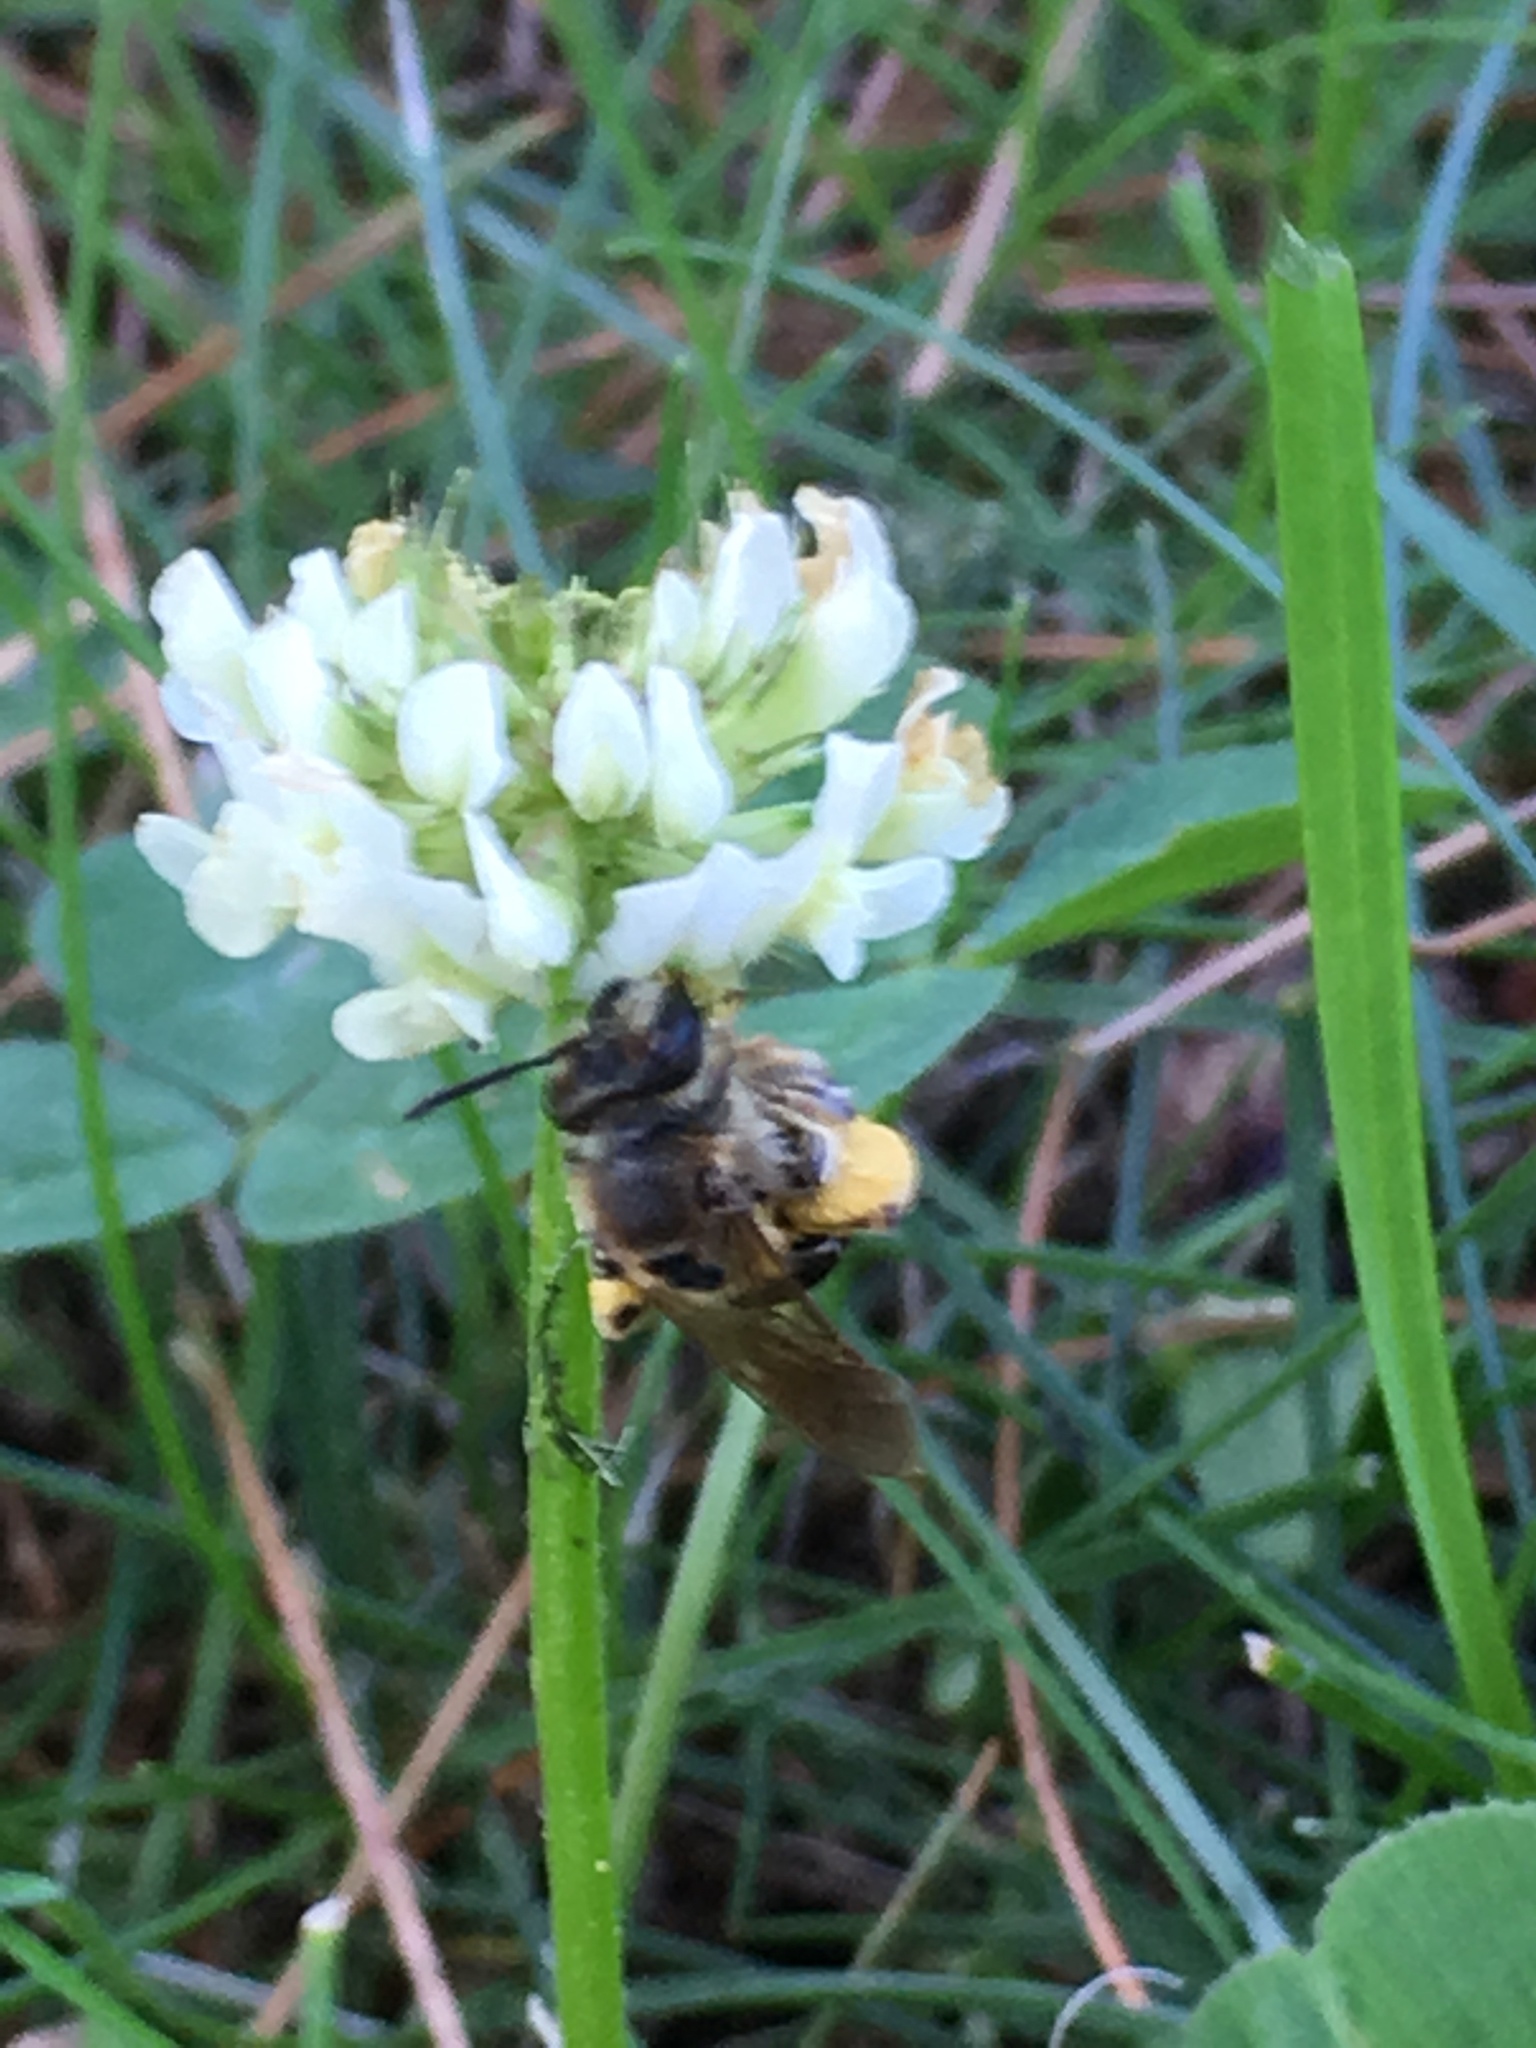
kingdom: Animalia
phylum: Arthropoda
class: Insecta
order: Hymenoptera
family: Andrenidae
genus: Andrena
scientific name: Andrena wilkella
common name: Wilke's mining bee
